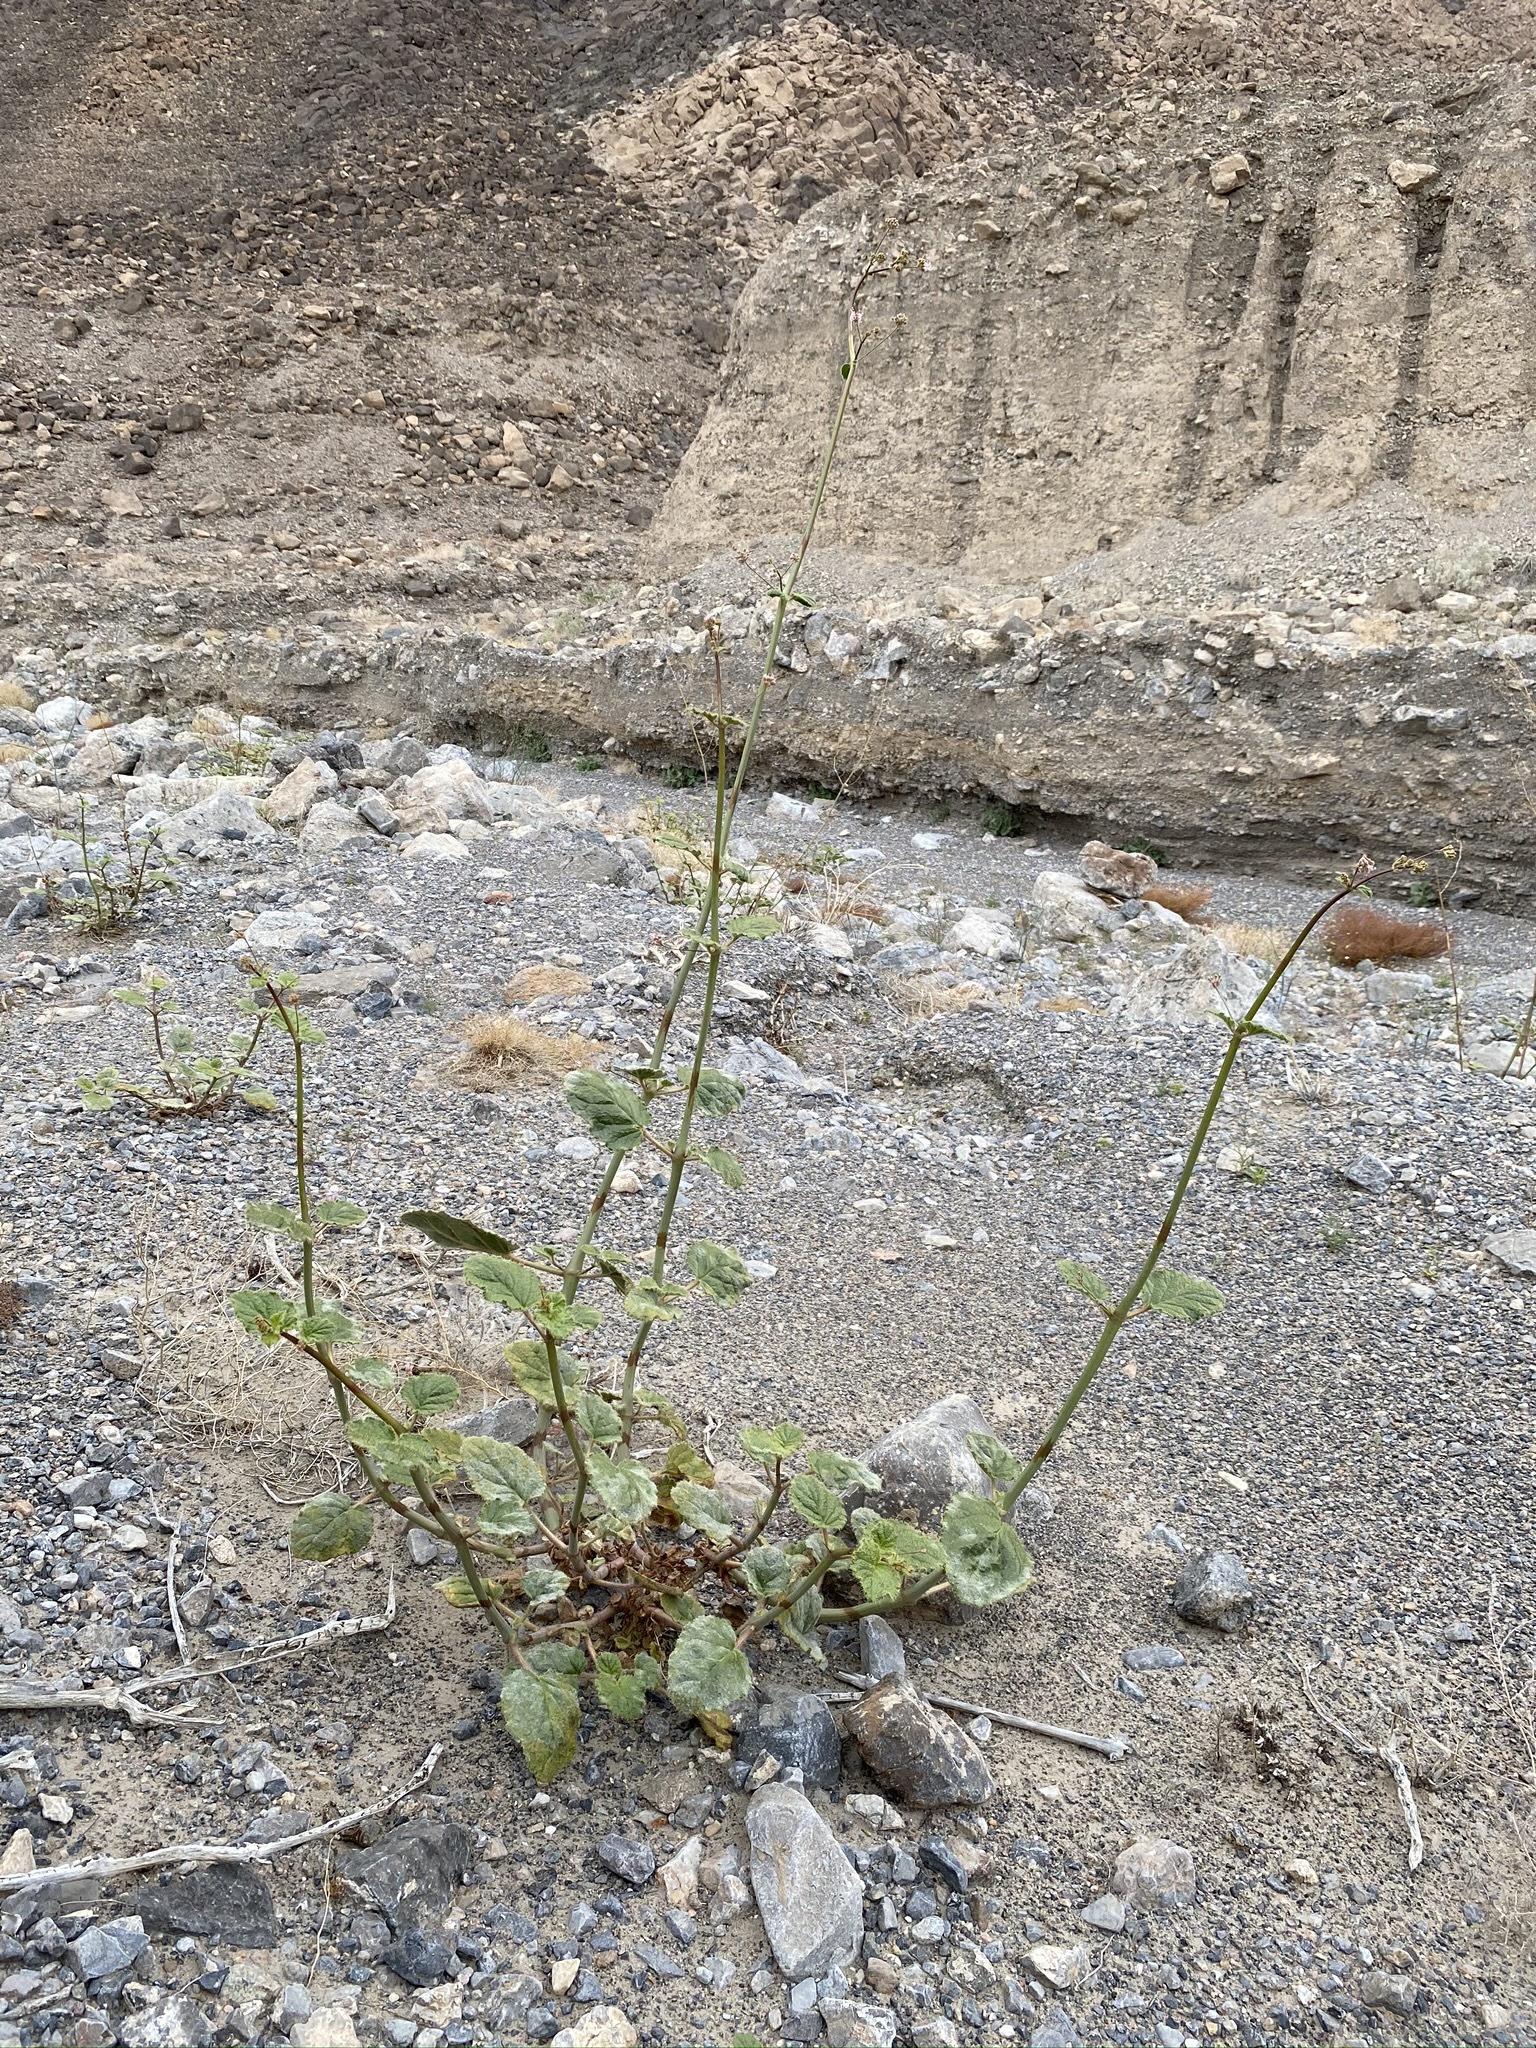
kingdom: Plantae
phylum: Tracheophyta
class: Magnoliopsida
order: Caryophyllales
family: Nyctaginaceae
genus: Anulocaulis
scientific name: Anulocaulis annulatus
